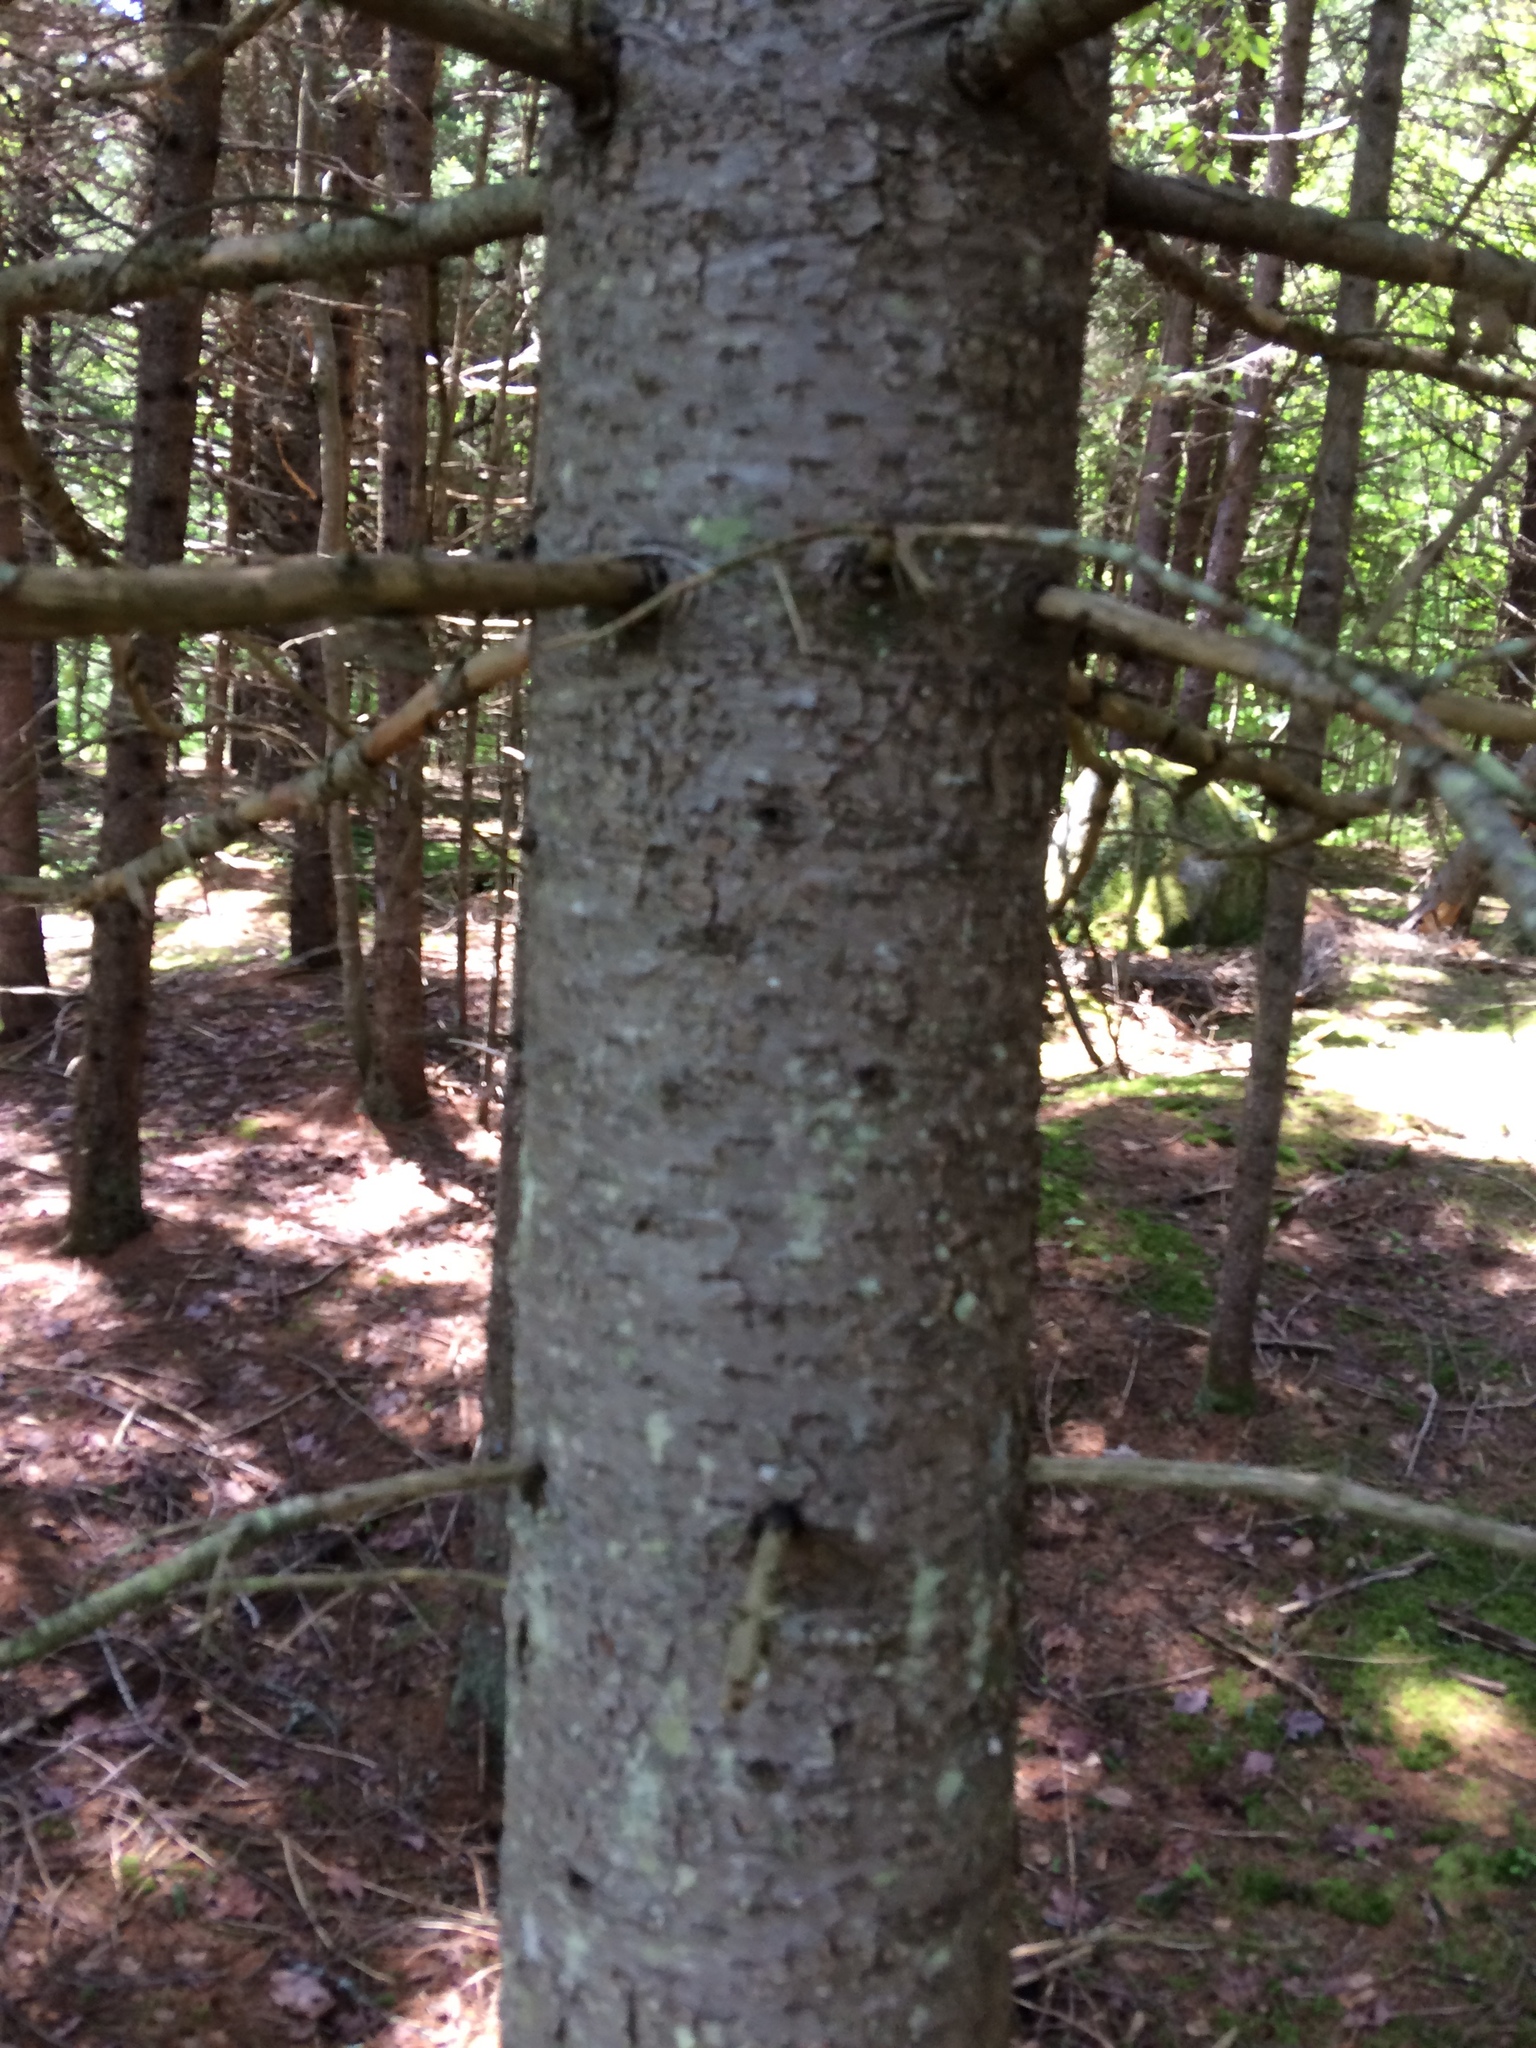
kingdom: Plantae
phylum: Tracheophyta
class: Pinopsida
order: Pinales
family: Pinaceae
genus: Abies
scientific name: Abies balsamea
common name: Balsam fir
